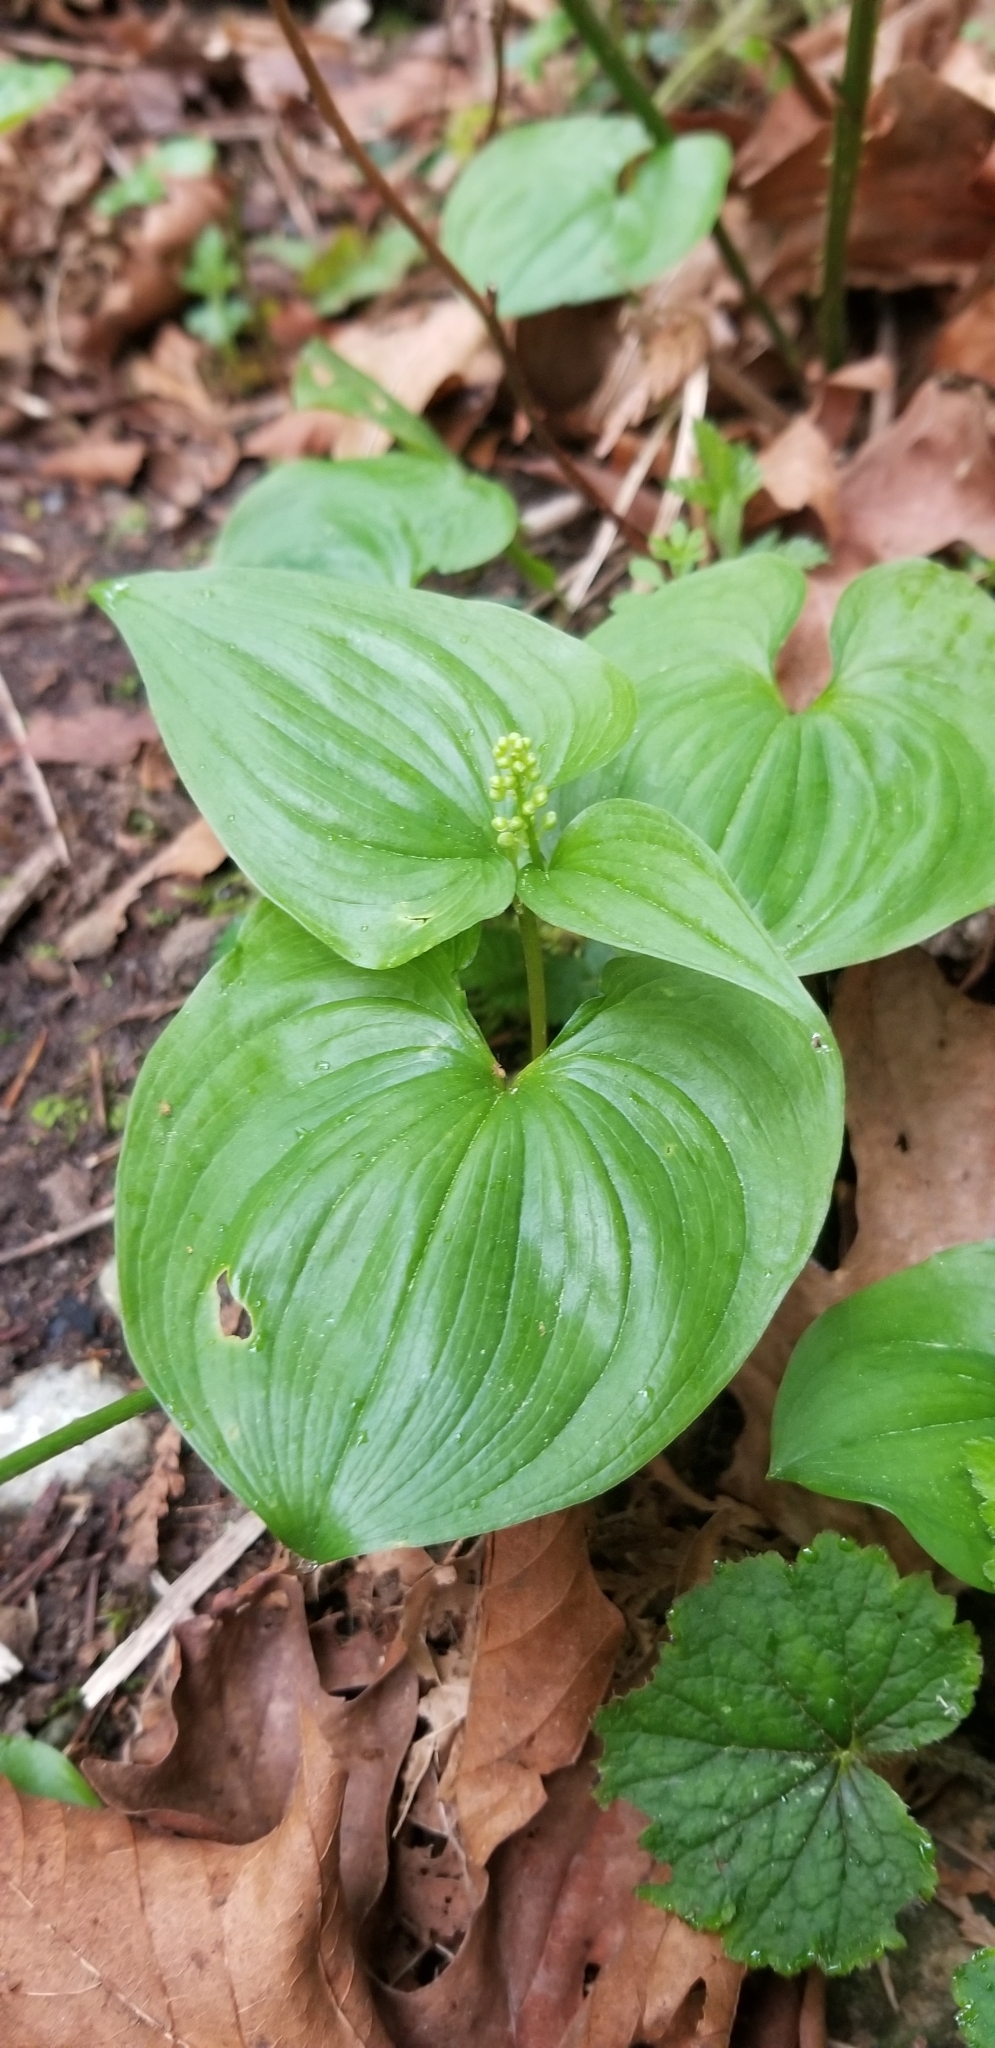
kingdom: Plantae
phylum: Tracheophyta
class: Liliopsida
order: Asparagales
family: Asparagaceae
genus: Maianthemum
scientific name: Maianthemum dilatatum
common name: False lily-of-the-valley
